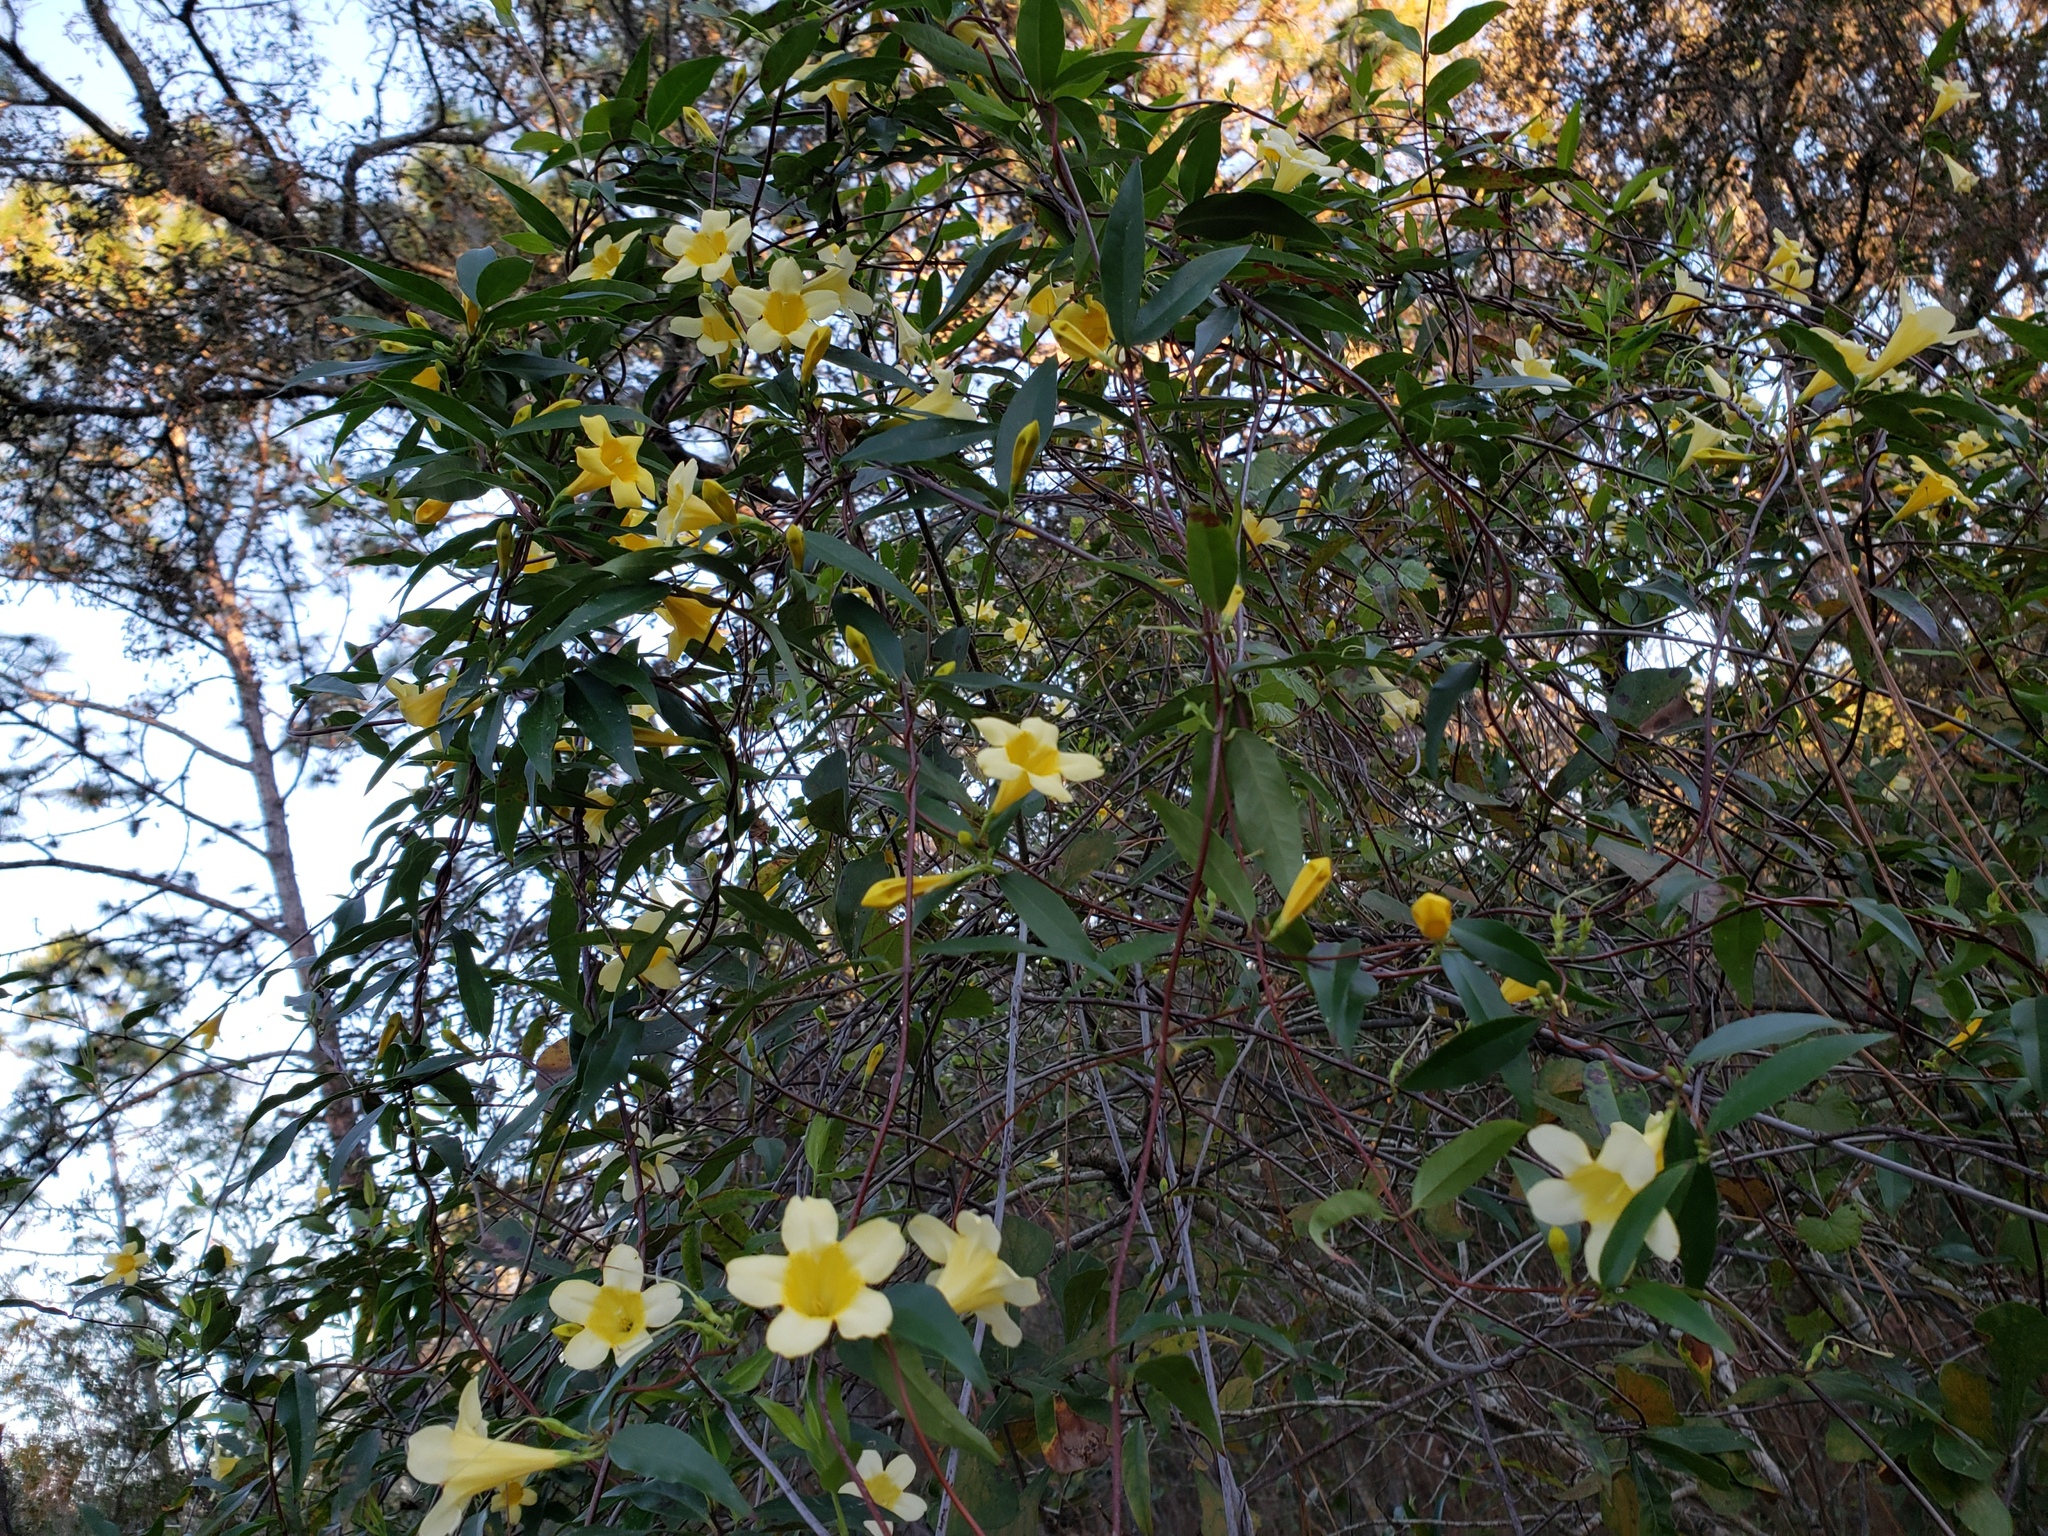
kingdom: Plantae
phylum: Tracheophyta
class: Magnoliopsida
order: Gentianales
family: Gelsemiaceae
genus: Gelsemium
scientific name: Gelsemium sempervirens
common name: Carolina-jasmine
